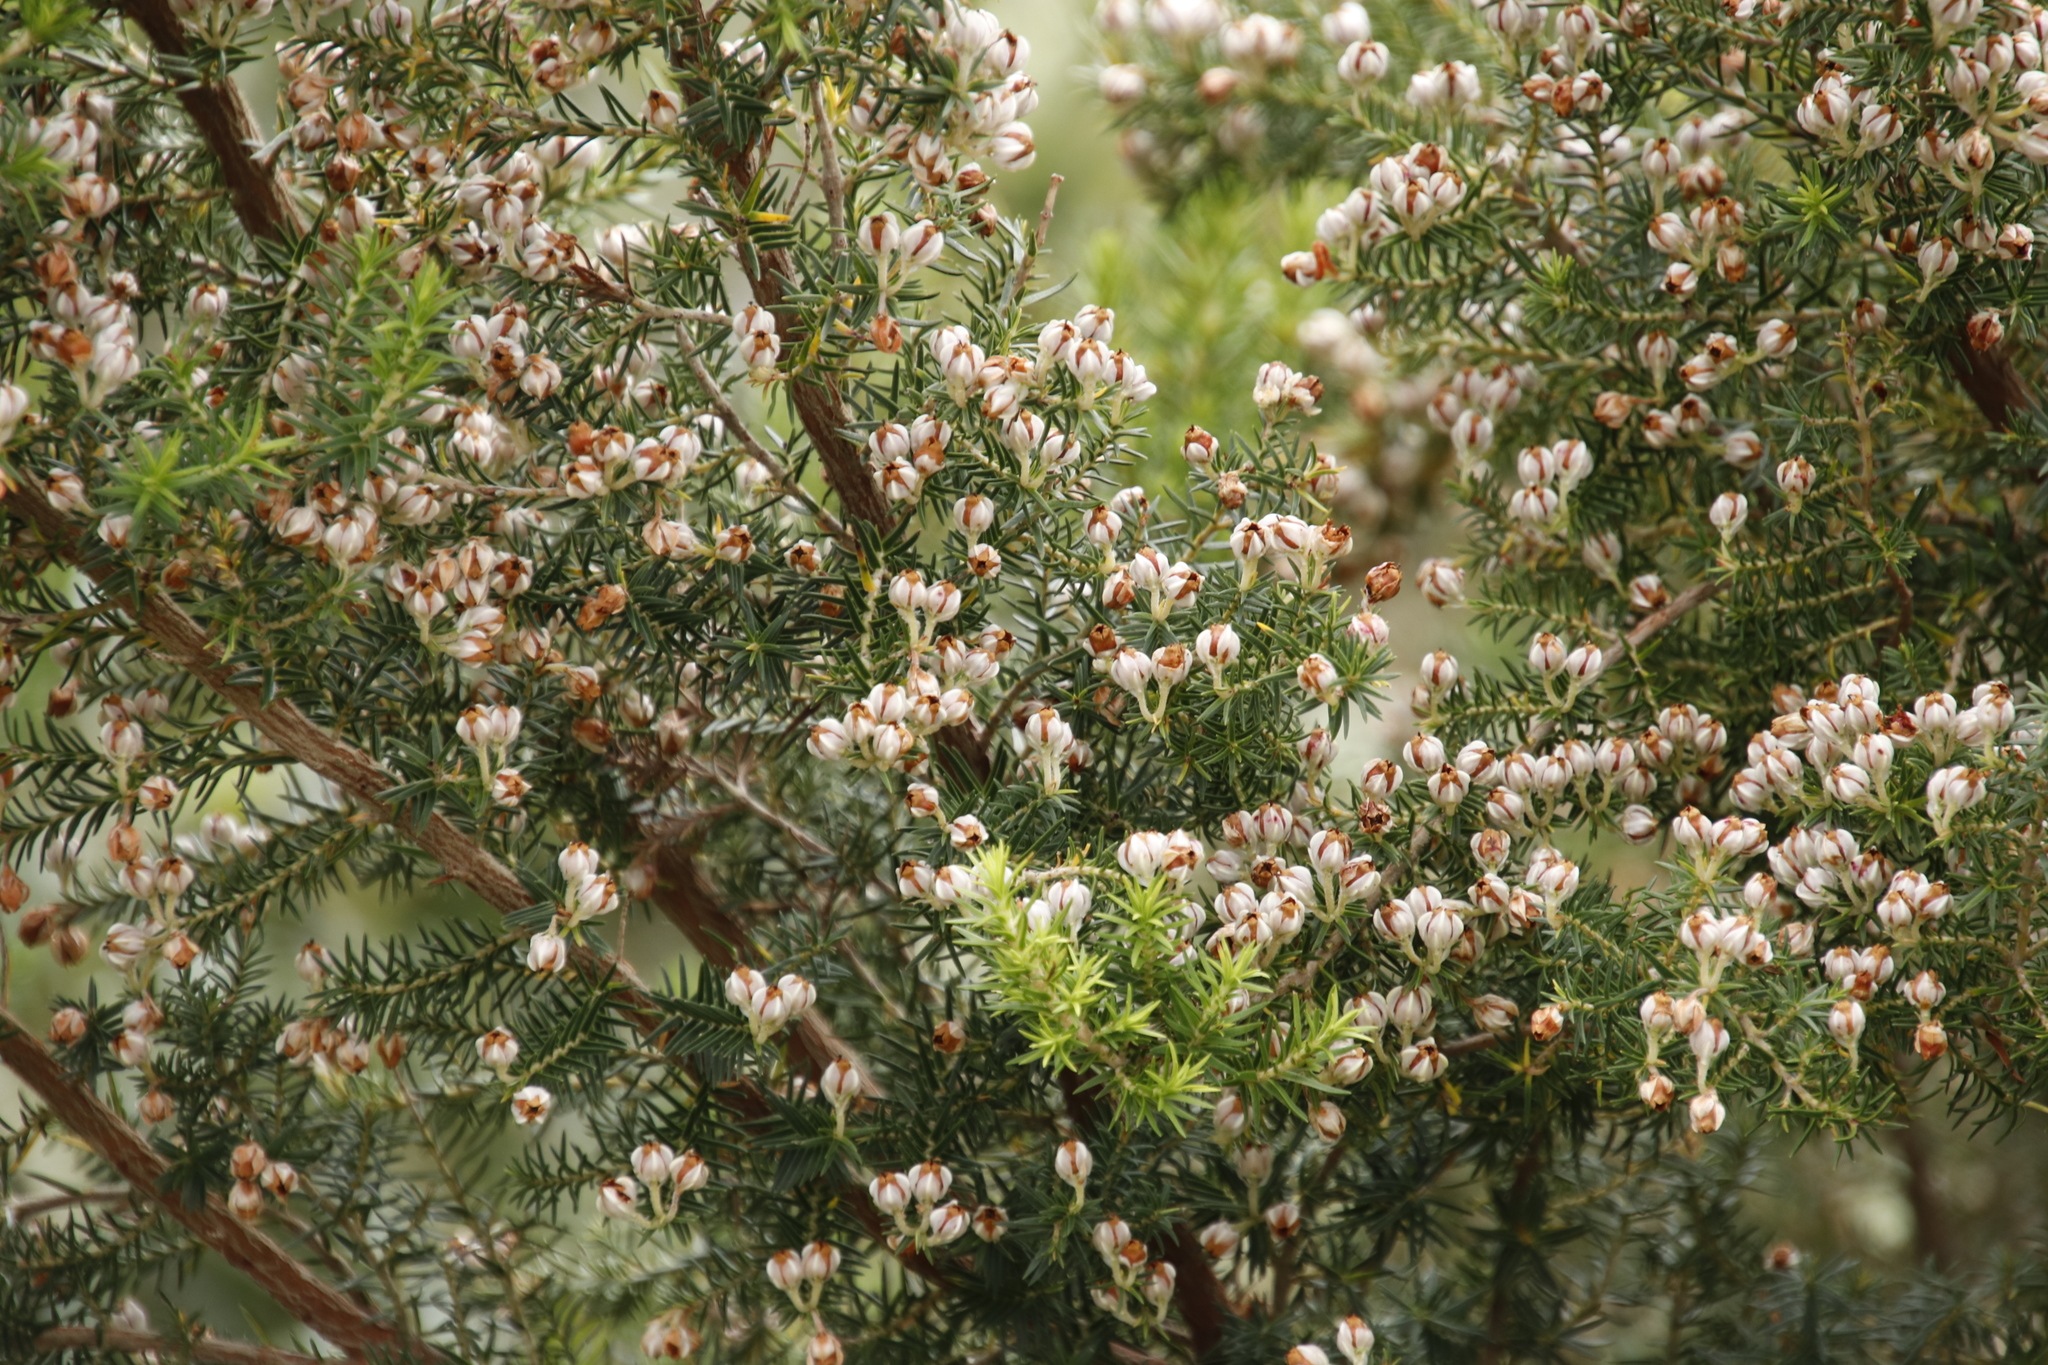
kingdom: Plantae
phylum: Tracheophyta
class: Magnoliopsida
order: Ericales
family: Ericaceae
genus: Erica
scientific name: Erica triflora
